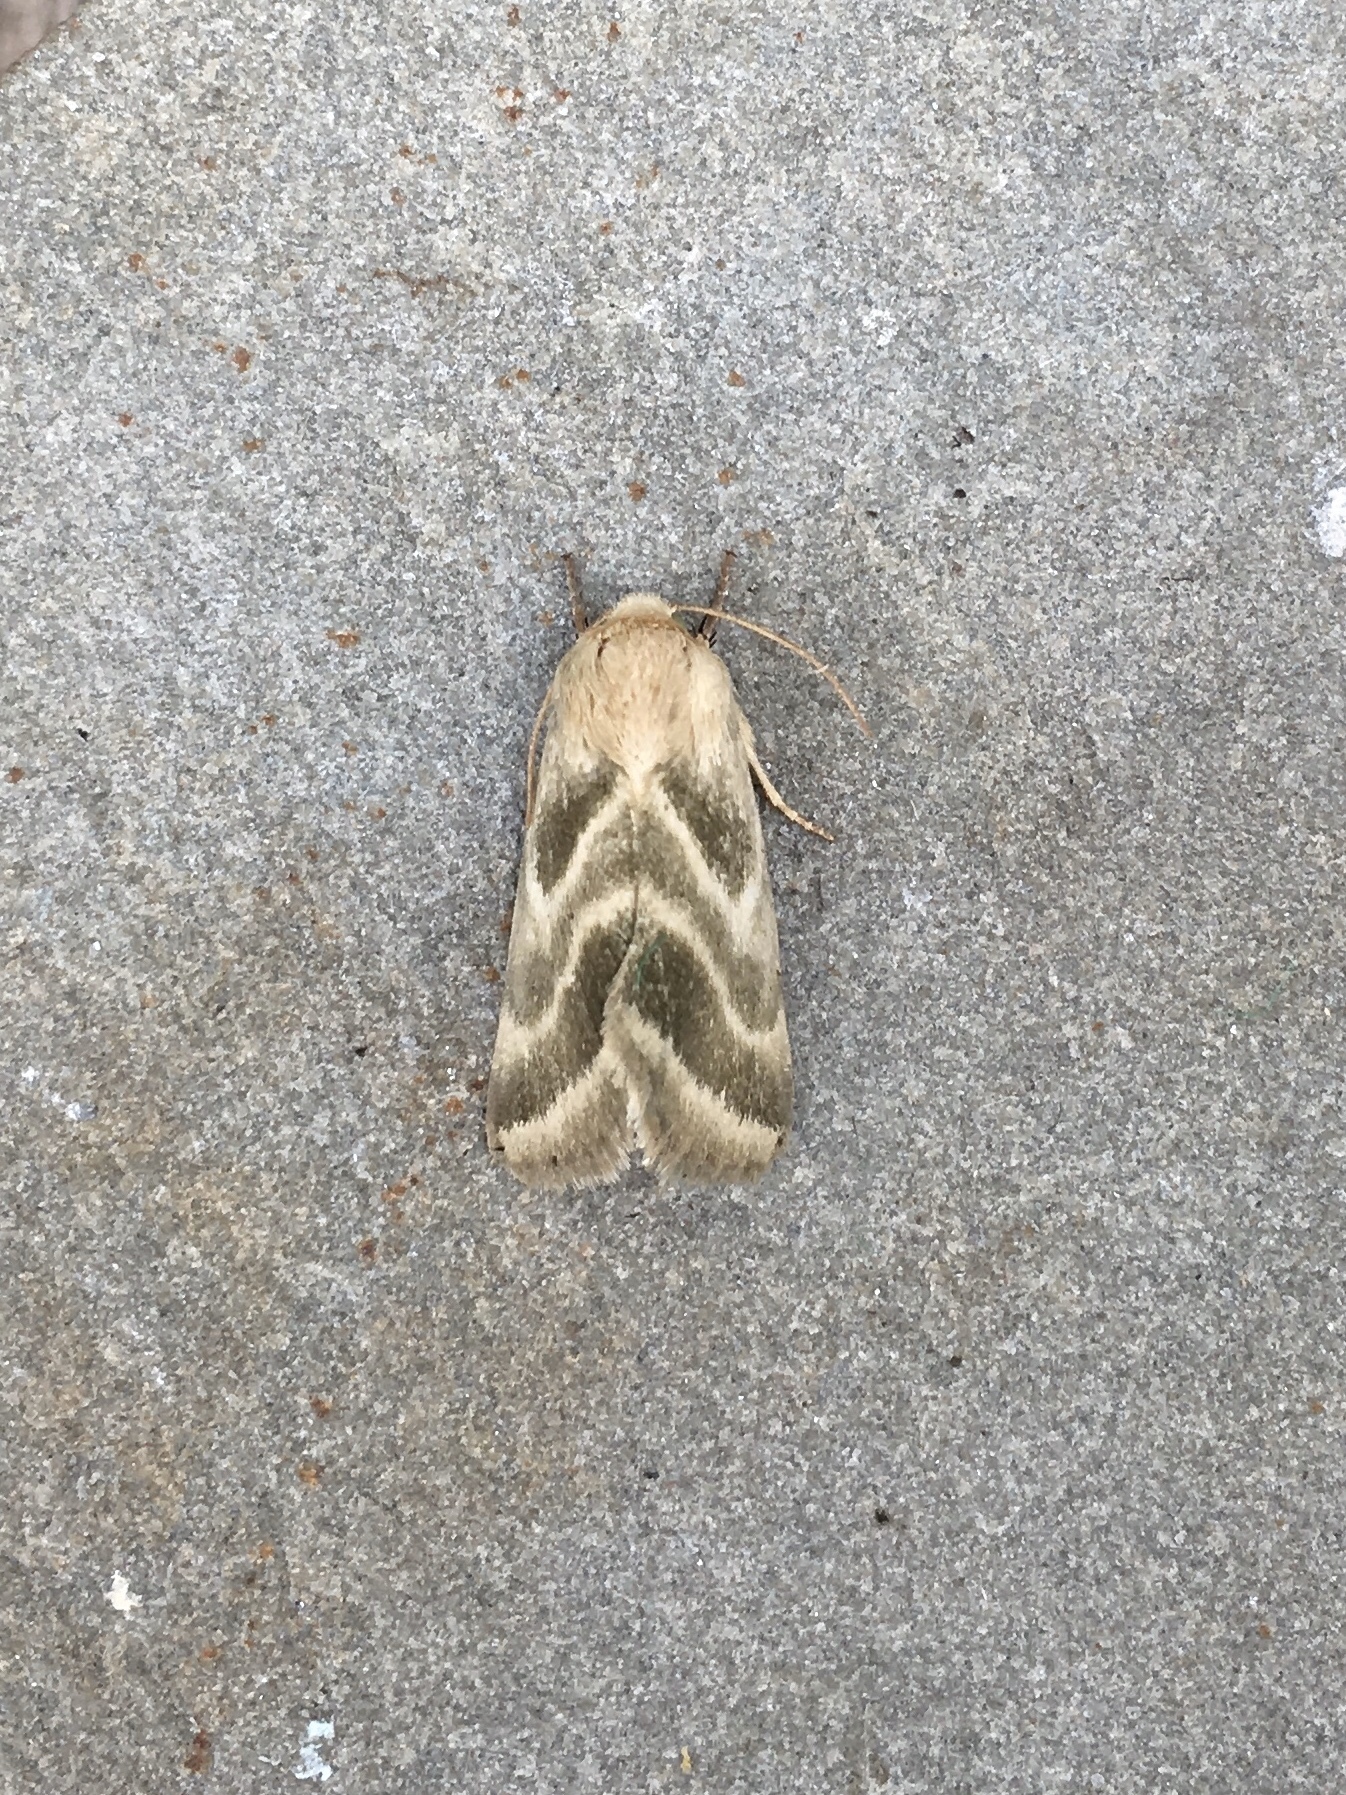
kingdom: Animalia
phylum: Arthropoda
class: Insecta
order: Lepidoptera
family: Noctuidae
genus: Schinia
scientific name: Schinia trifascia
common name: Three-lined flower moth
